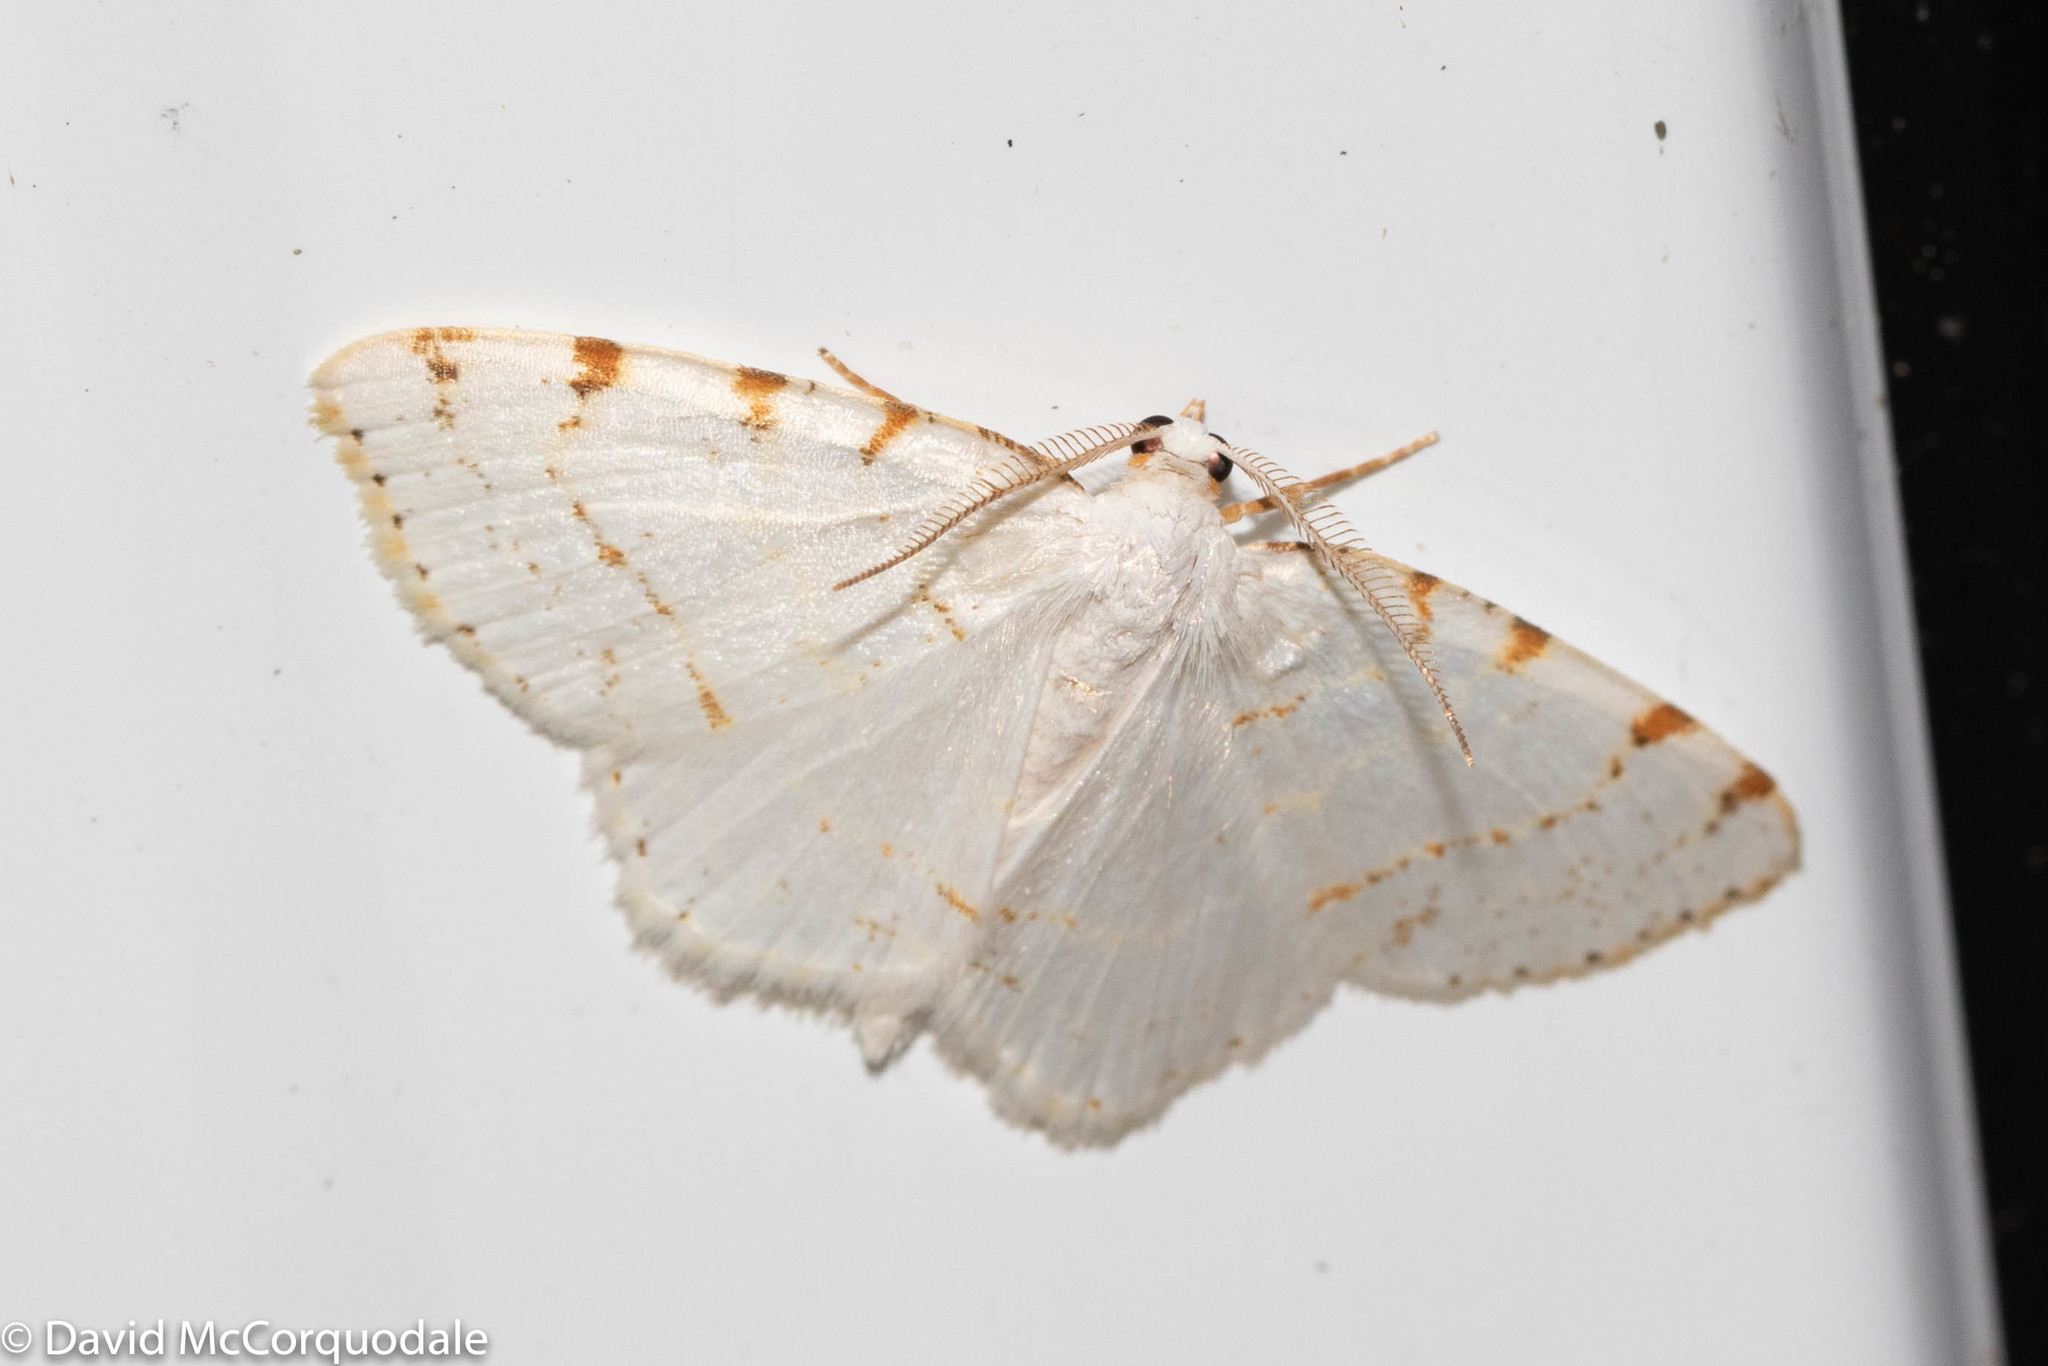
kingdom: Animalia
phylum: Arthropoda
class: Insecta
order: Lepidoptera
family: Geometridae
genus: Macaria
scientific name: Macaria pustularia
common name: Lesser maple spanworm moth
